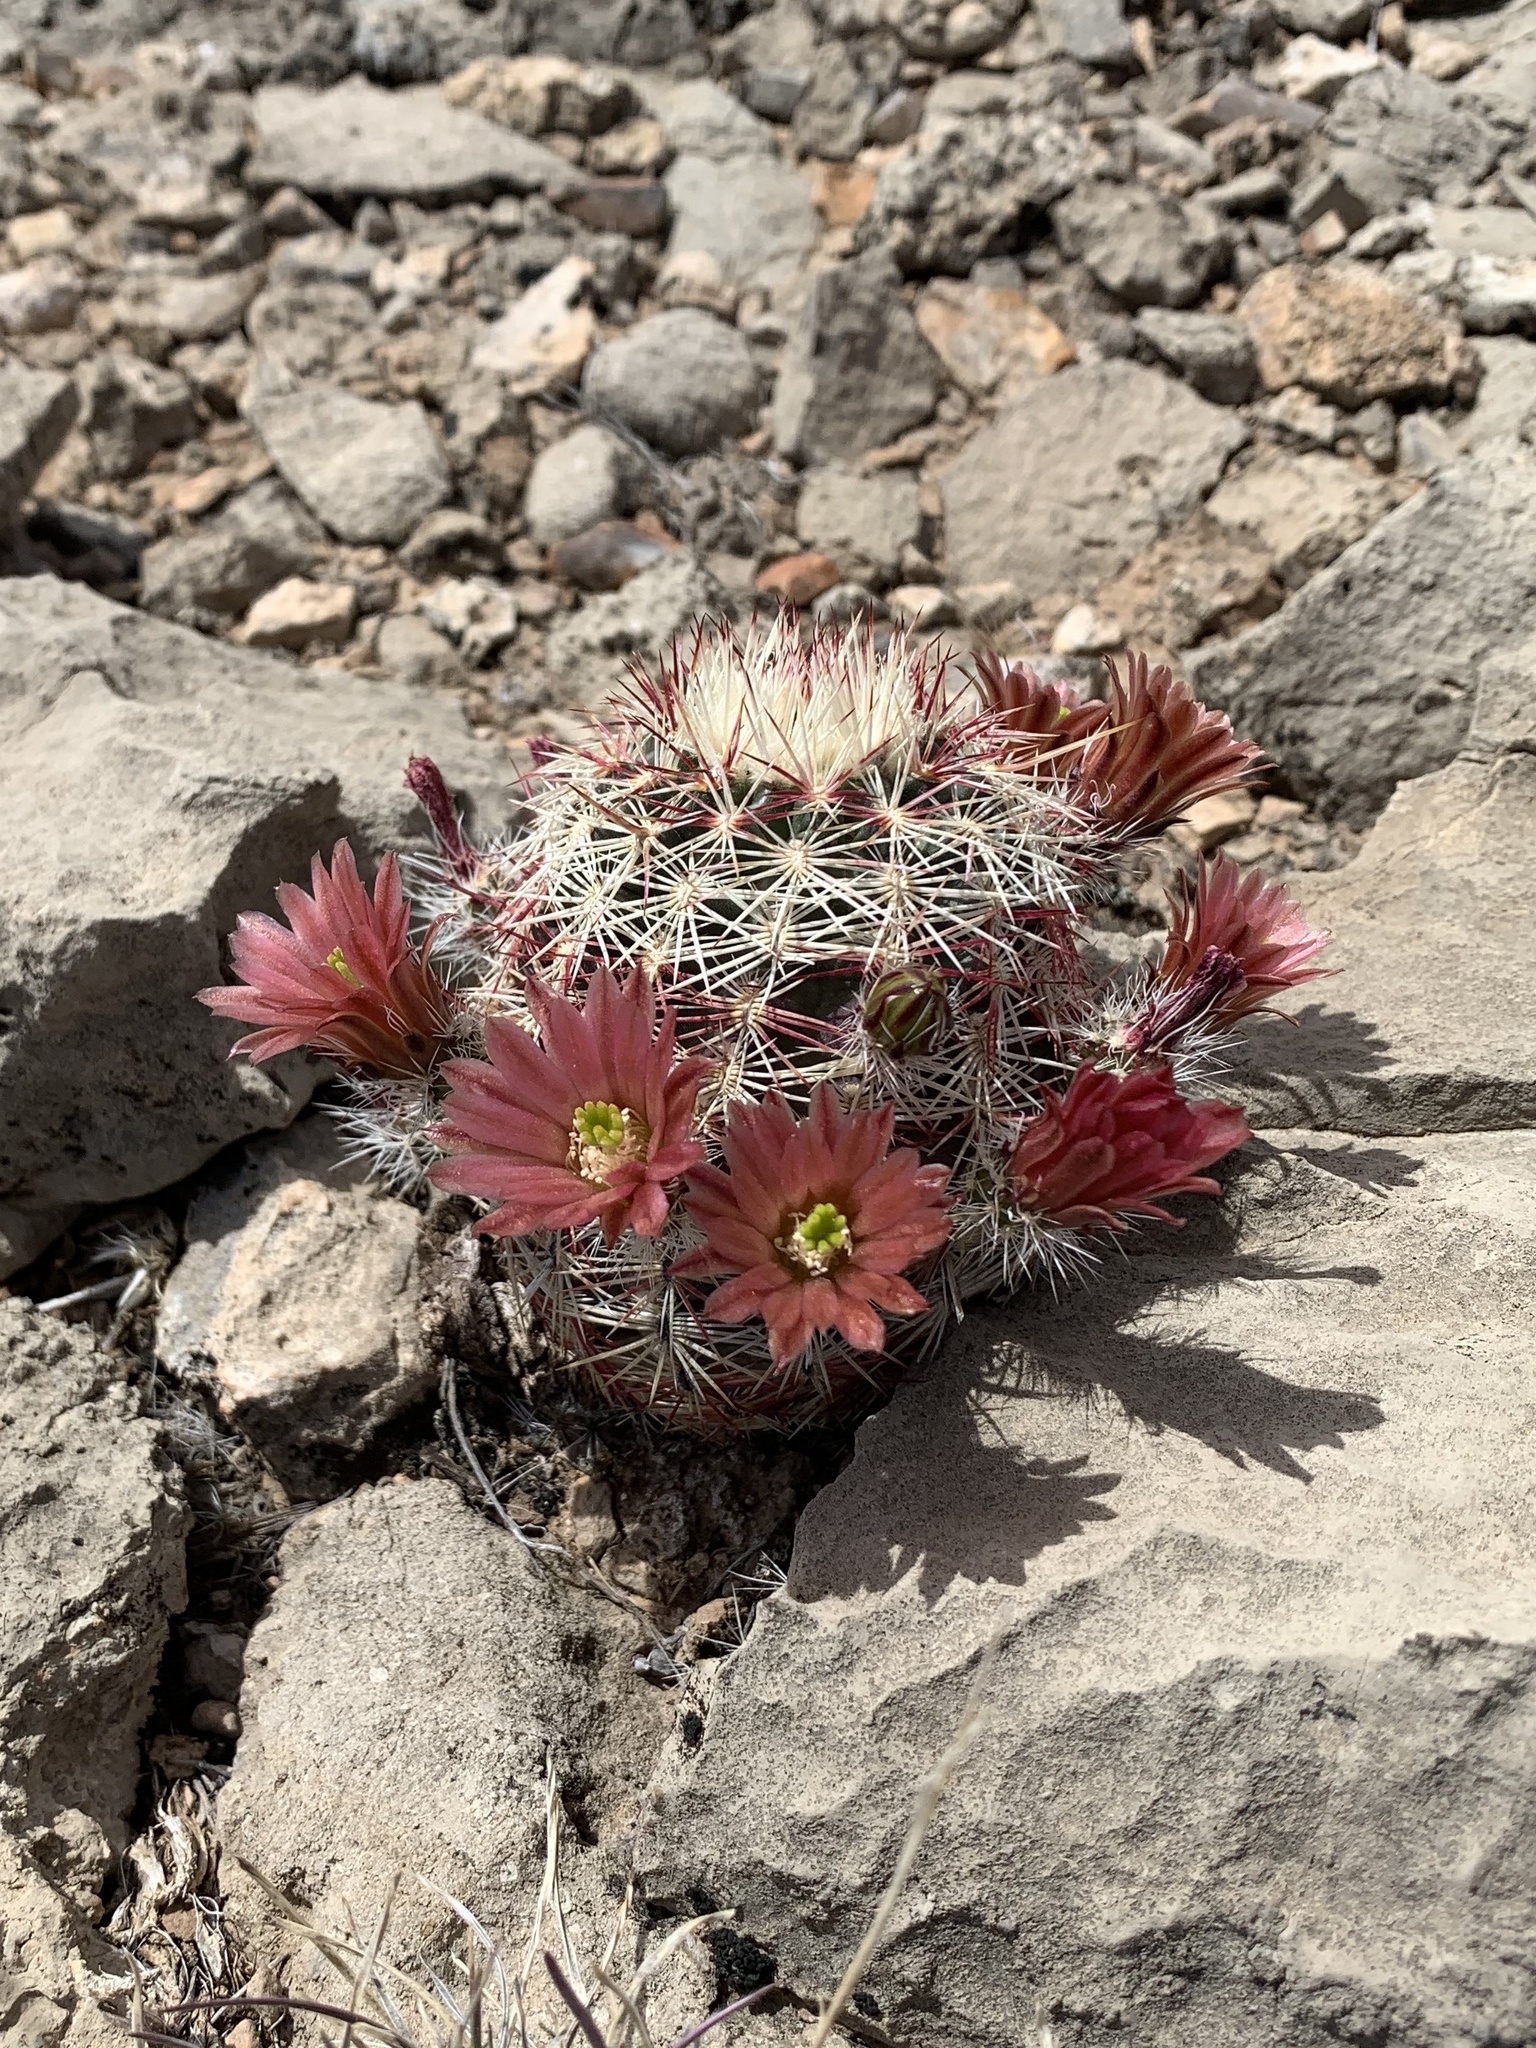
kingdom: Plantae
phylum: Tracheophyta
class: Magnoliopsida
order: Caryophyllales
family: Cactaceae
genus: Echinocereus
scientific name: Echinocereus viridiflorus
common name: Nylon hedgehog cactus
